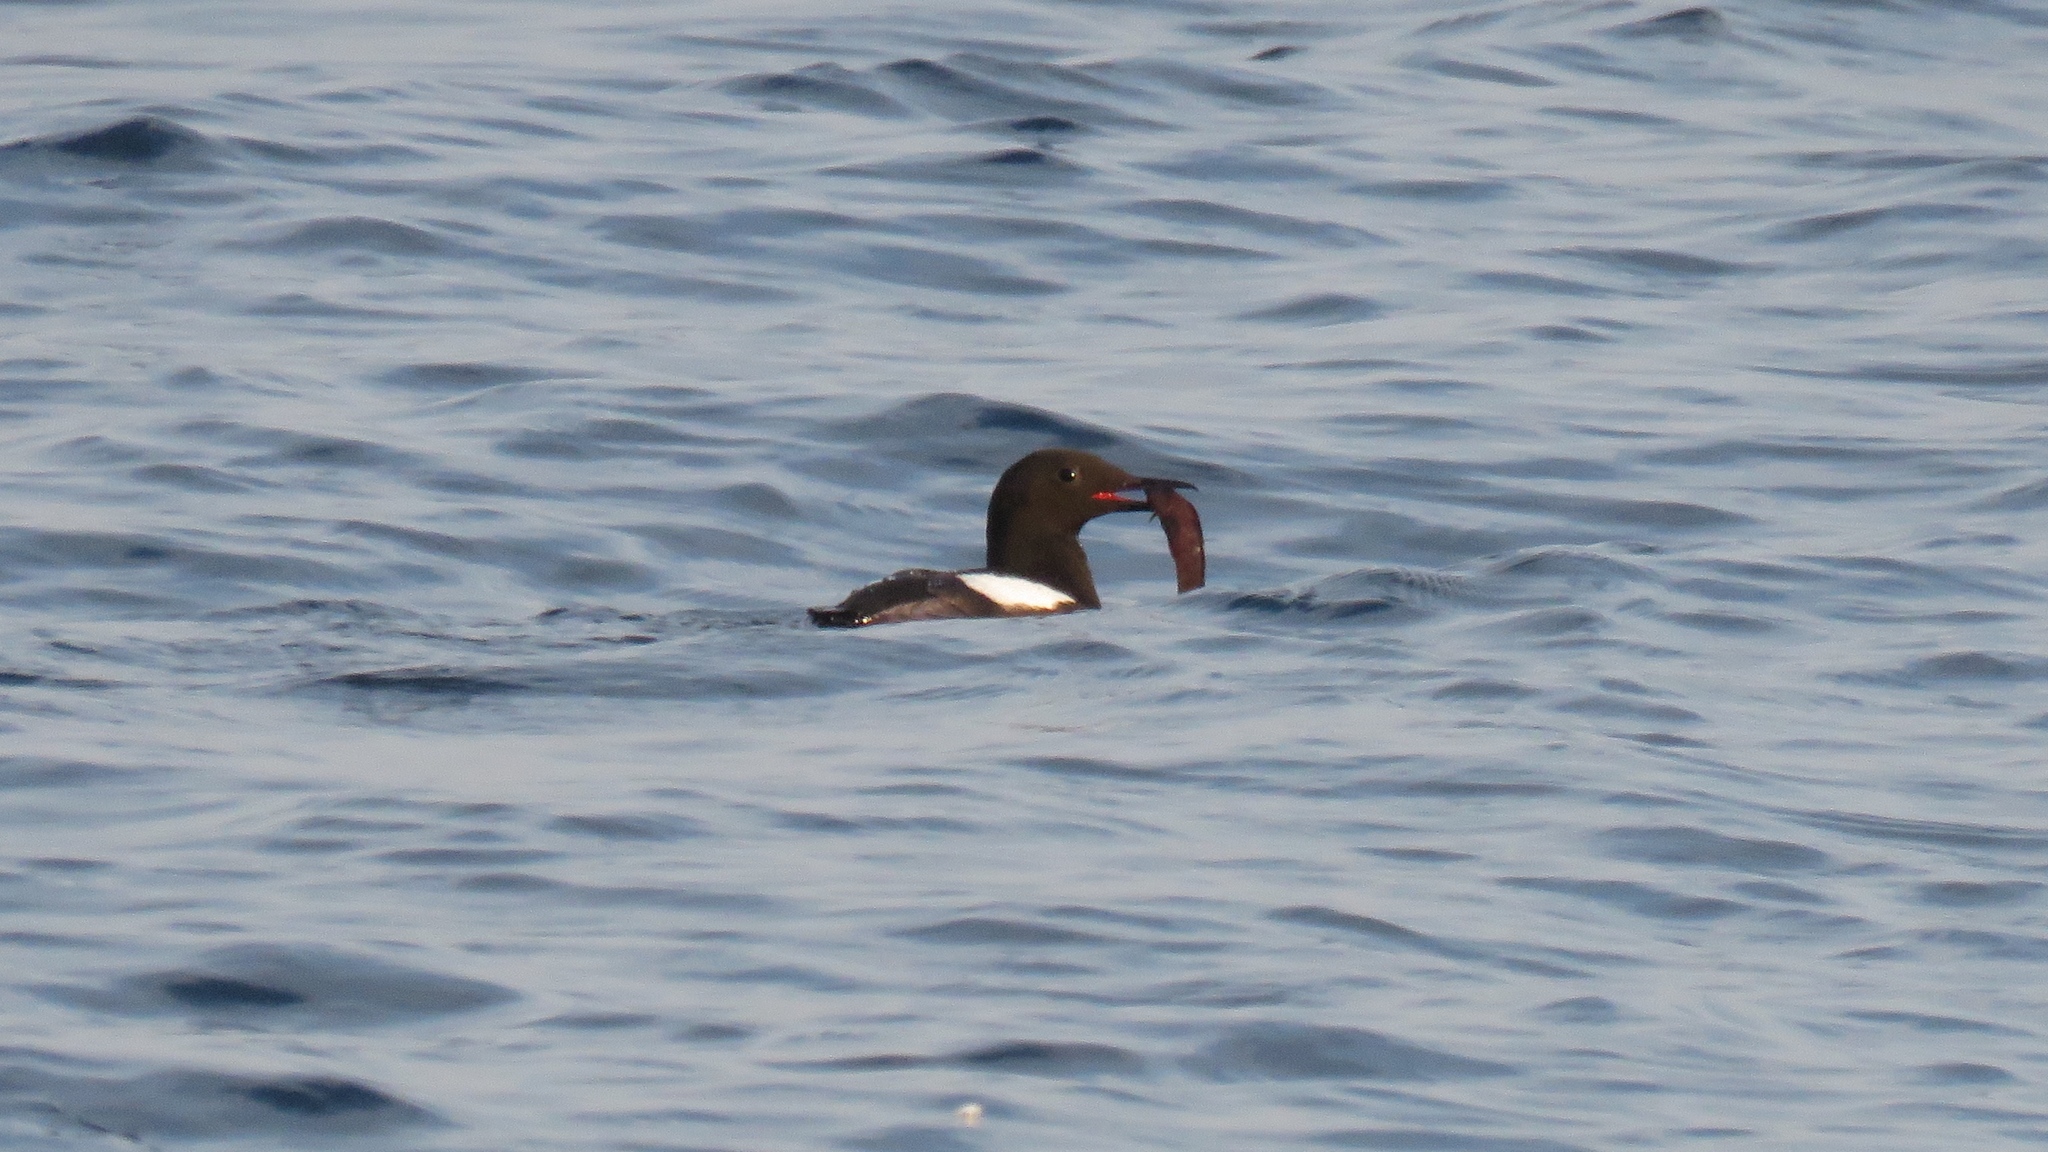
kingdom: Animalia
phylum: Chordata
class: Aves
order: Charadriiformes
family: Alcidae
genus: Cepphus
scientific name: Cepphus grylle
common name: Black guillemot
